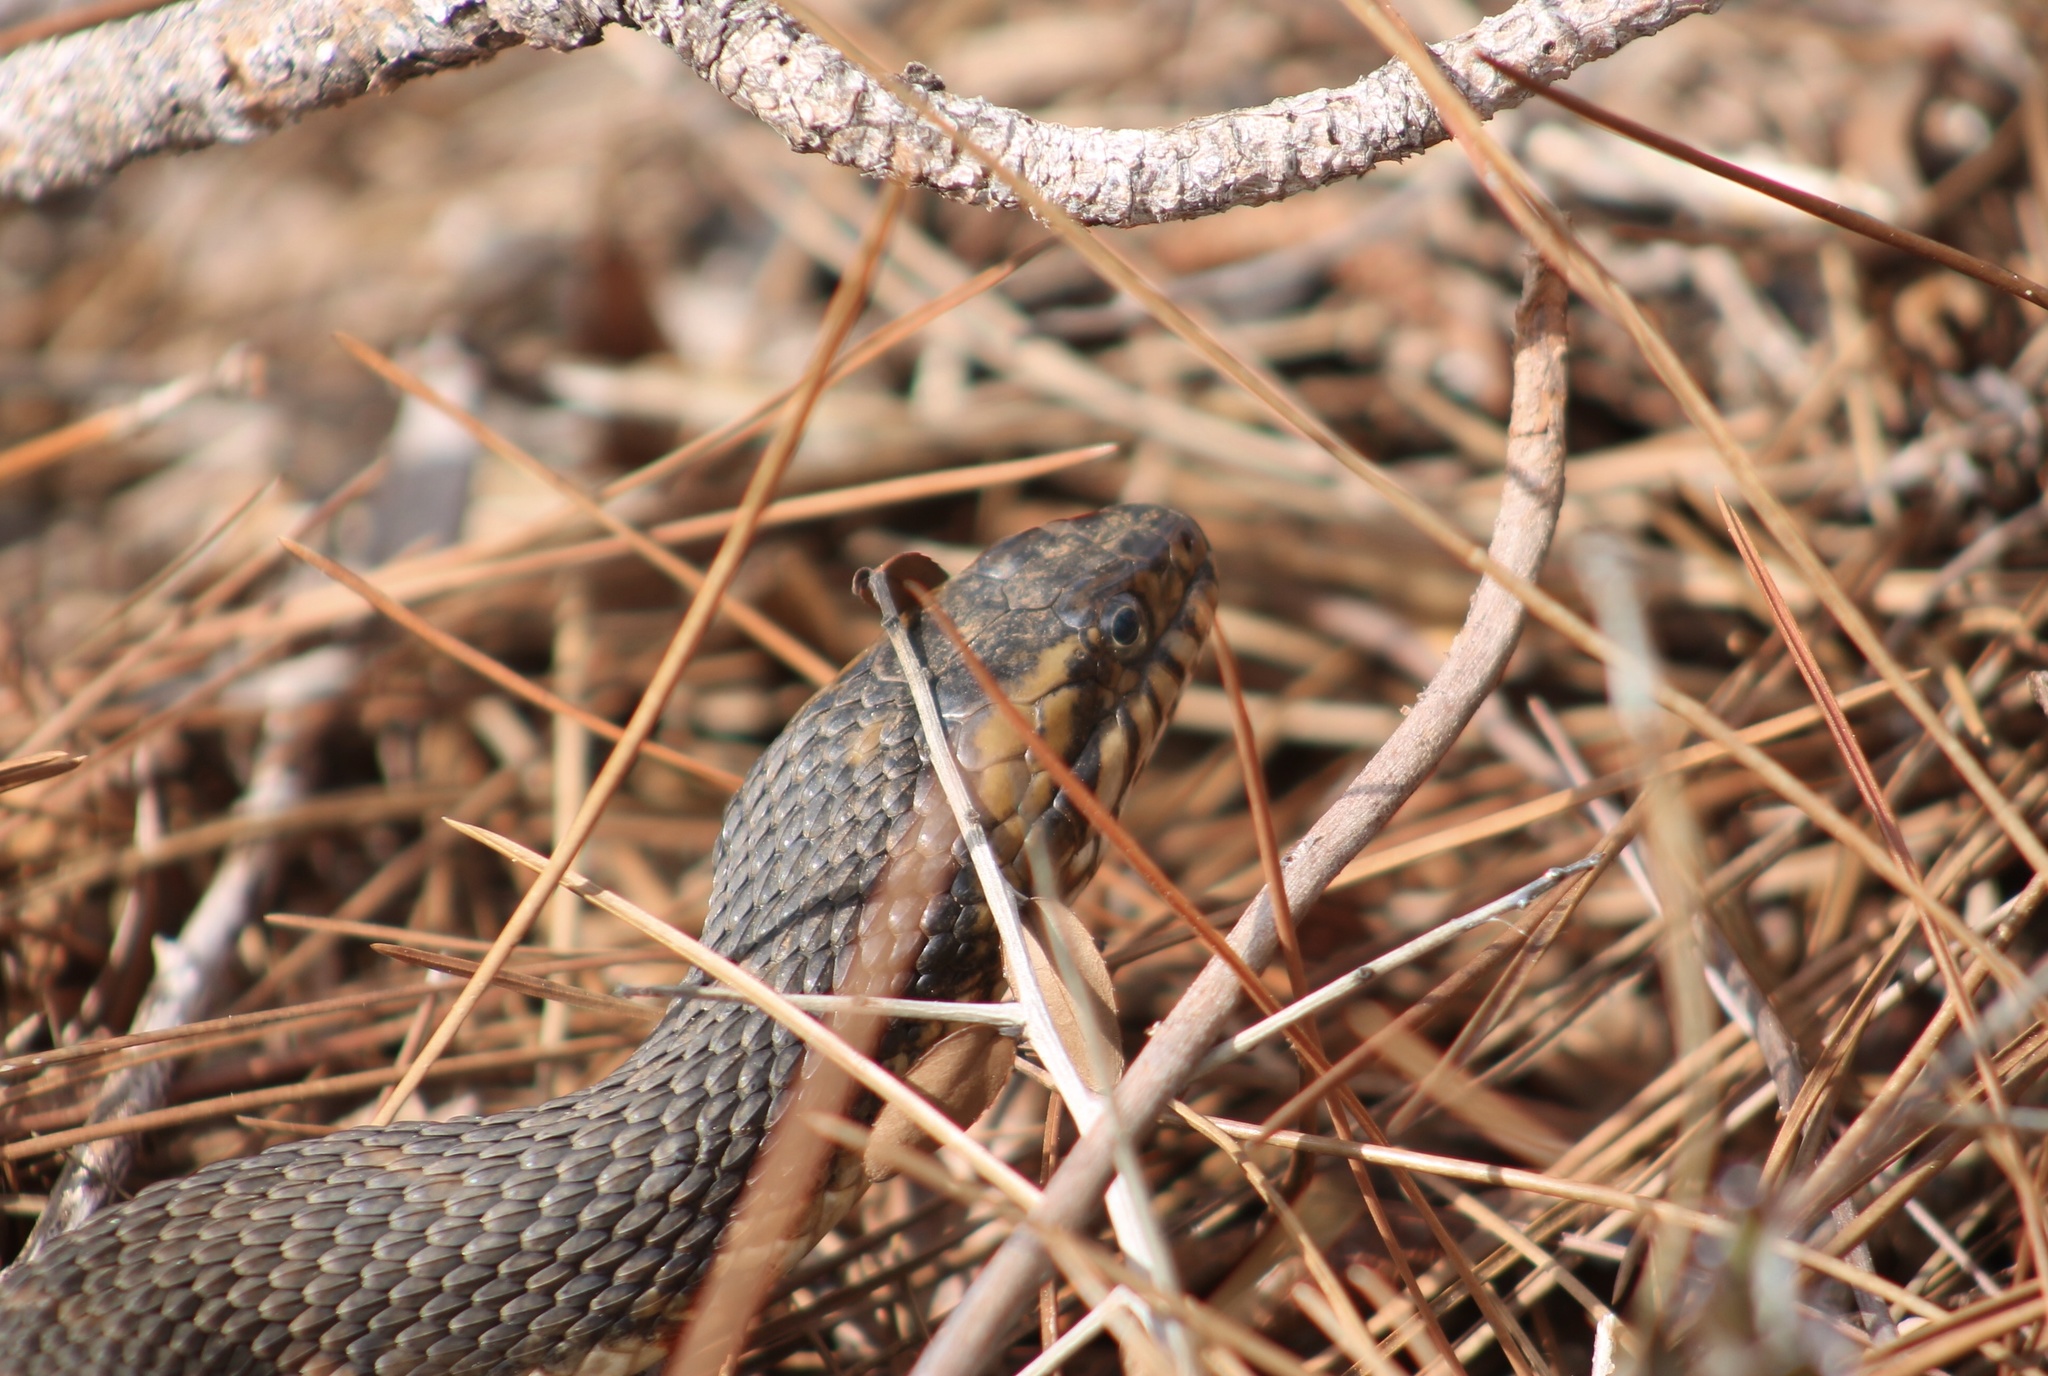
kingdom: Animalia
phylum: Chordata
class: Squamata
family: Colubridae
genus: Nerodia
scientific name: Nerodia fasciata
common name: Southern water snake
